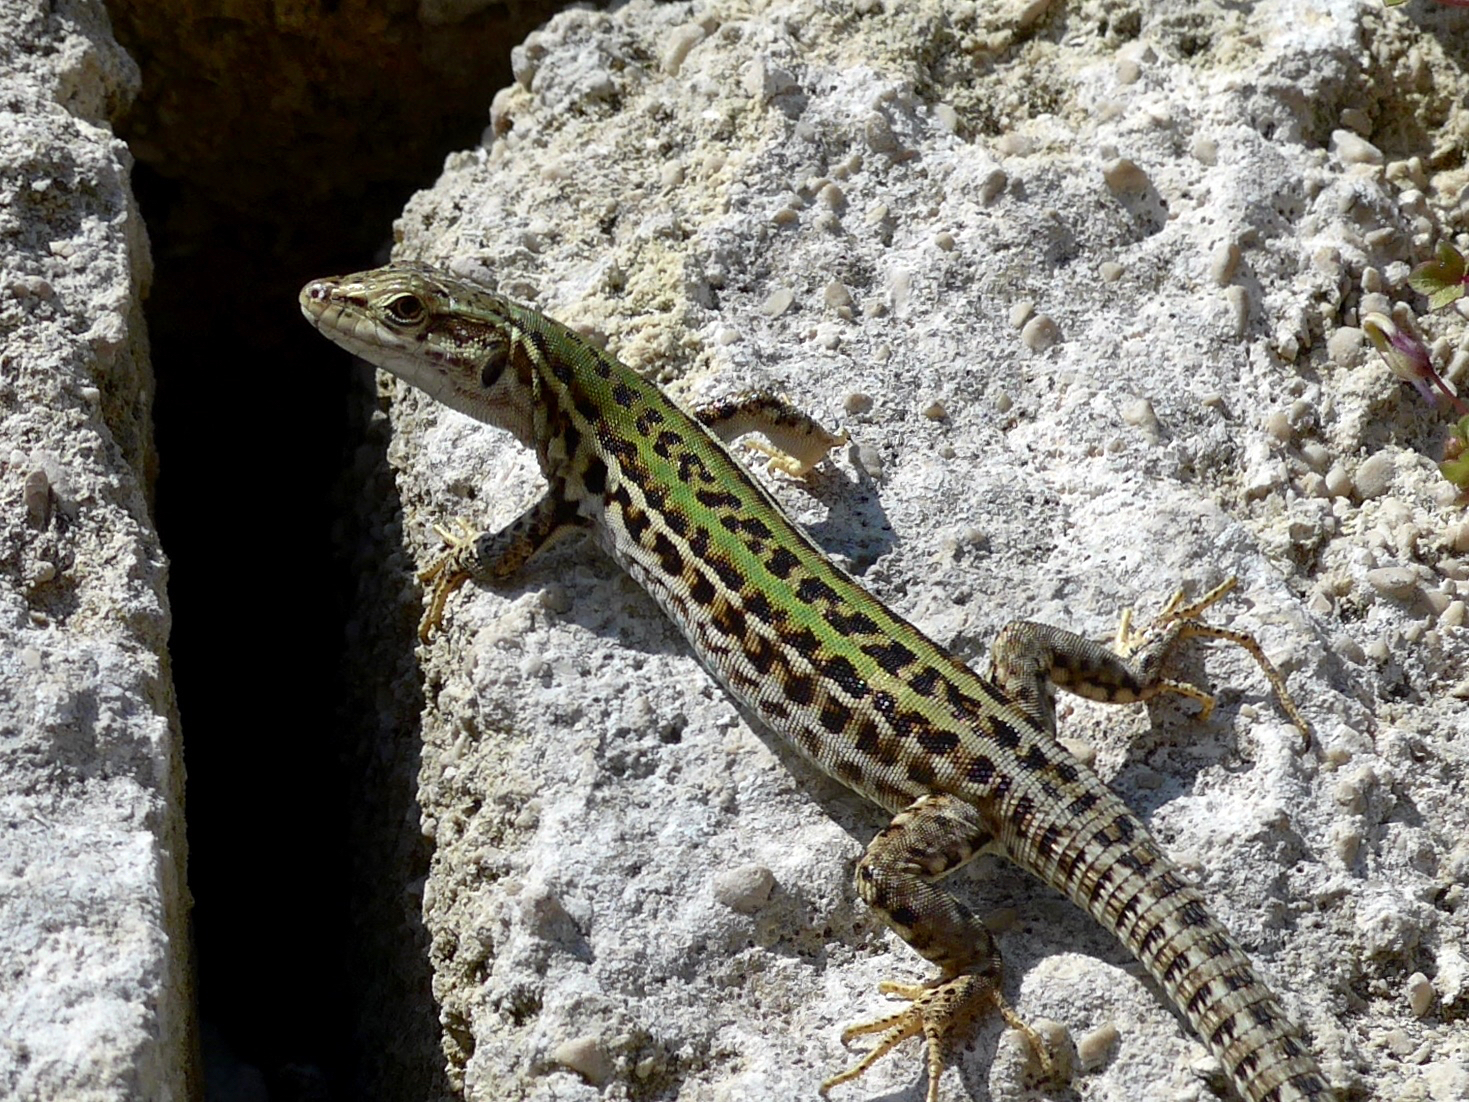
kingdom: Animalia
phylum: Chordata
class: Squamata
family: Lacertidae
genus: Podarcis
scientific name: Podarcis siculus
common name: Italian wall lizard
